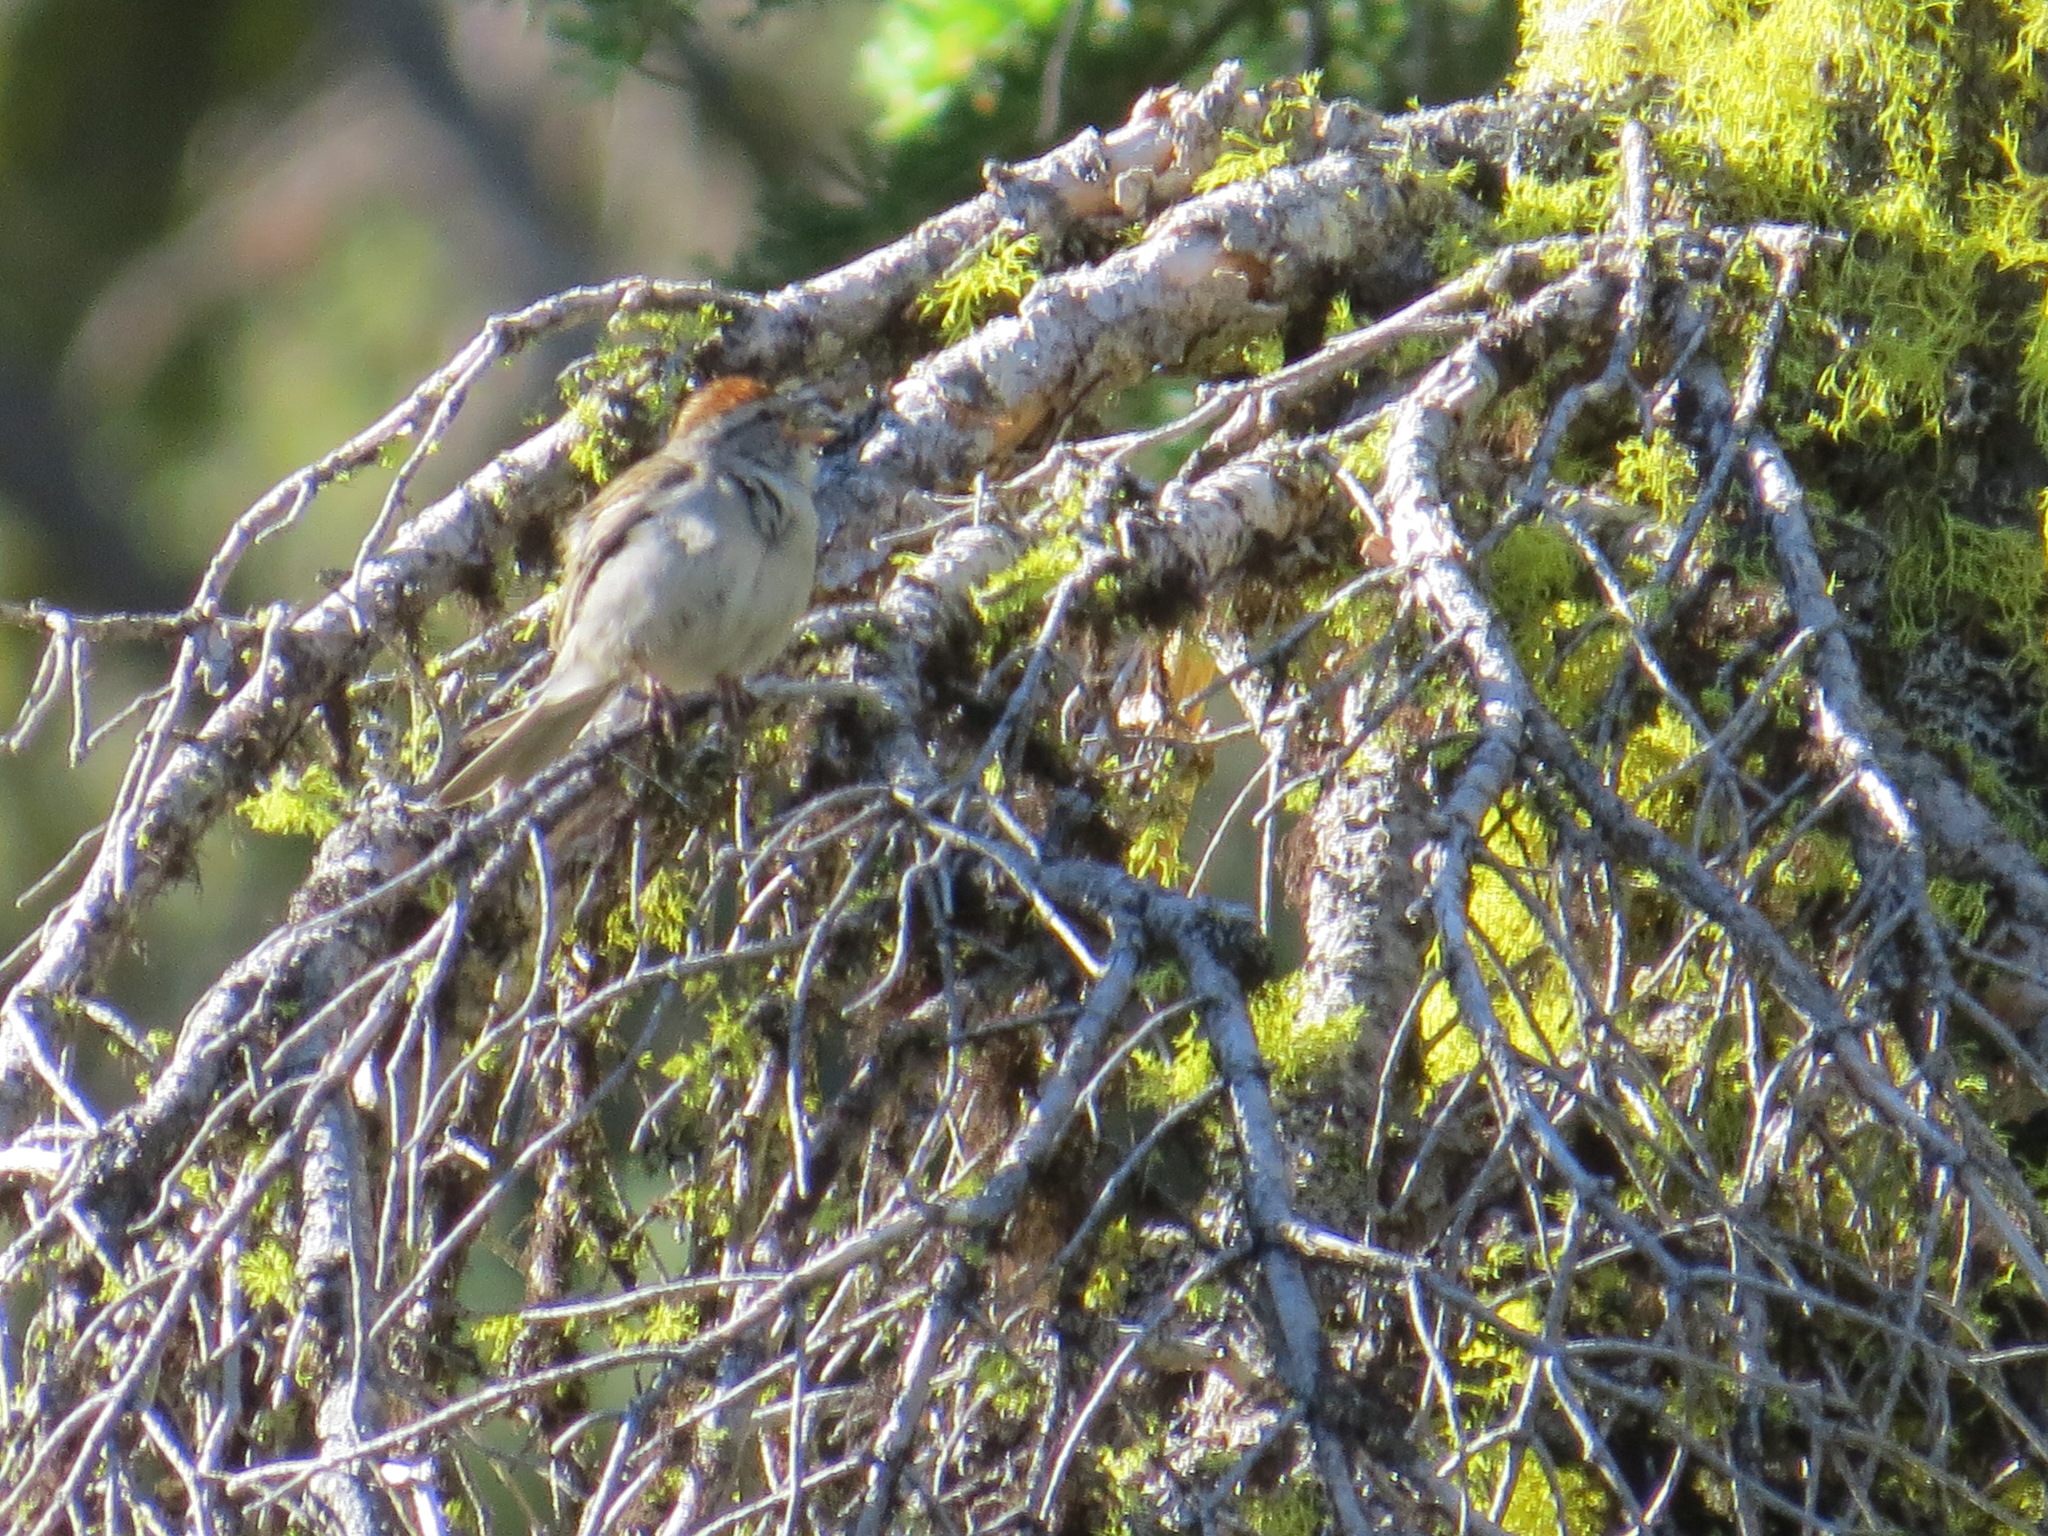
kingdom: Animalia
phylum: Chordata
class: Aves
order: Passeriformes
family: Passerellidae
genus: Spizella
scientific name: Spizella passerina
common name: Chipping sparrow
